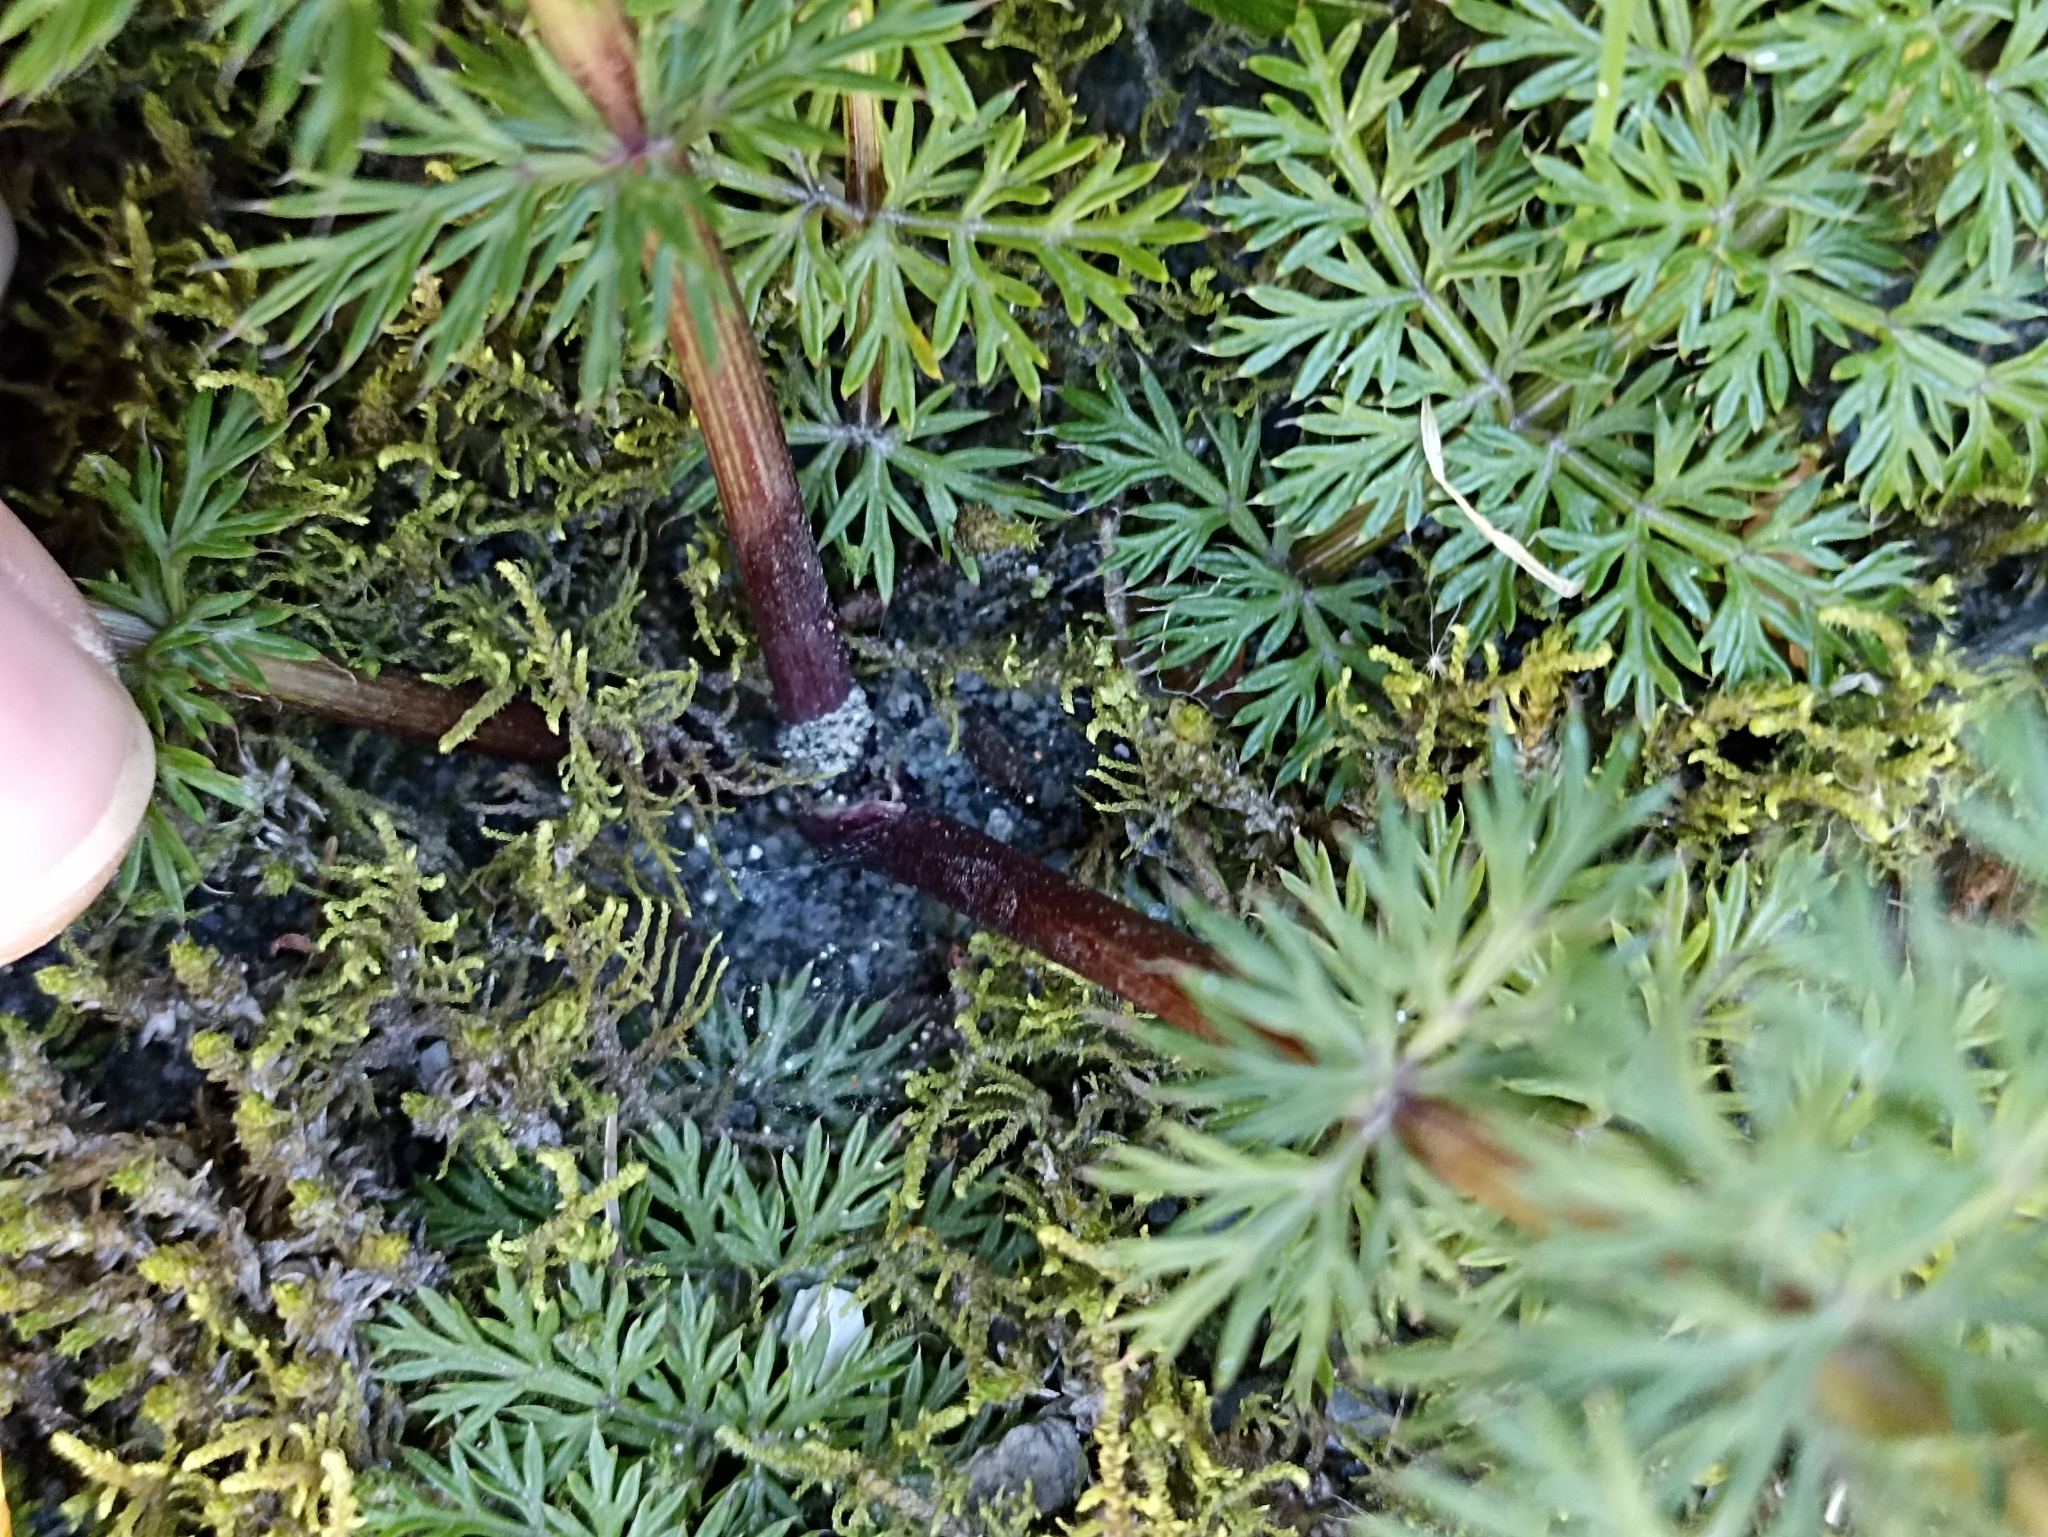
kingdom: Plantae
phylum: Tracheophyta
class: Magnoliopsida
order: Apiales
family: Apiaceae
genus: Anisotome
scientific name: Anisotome haastii
